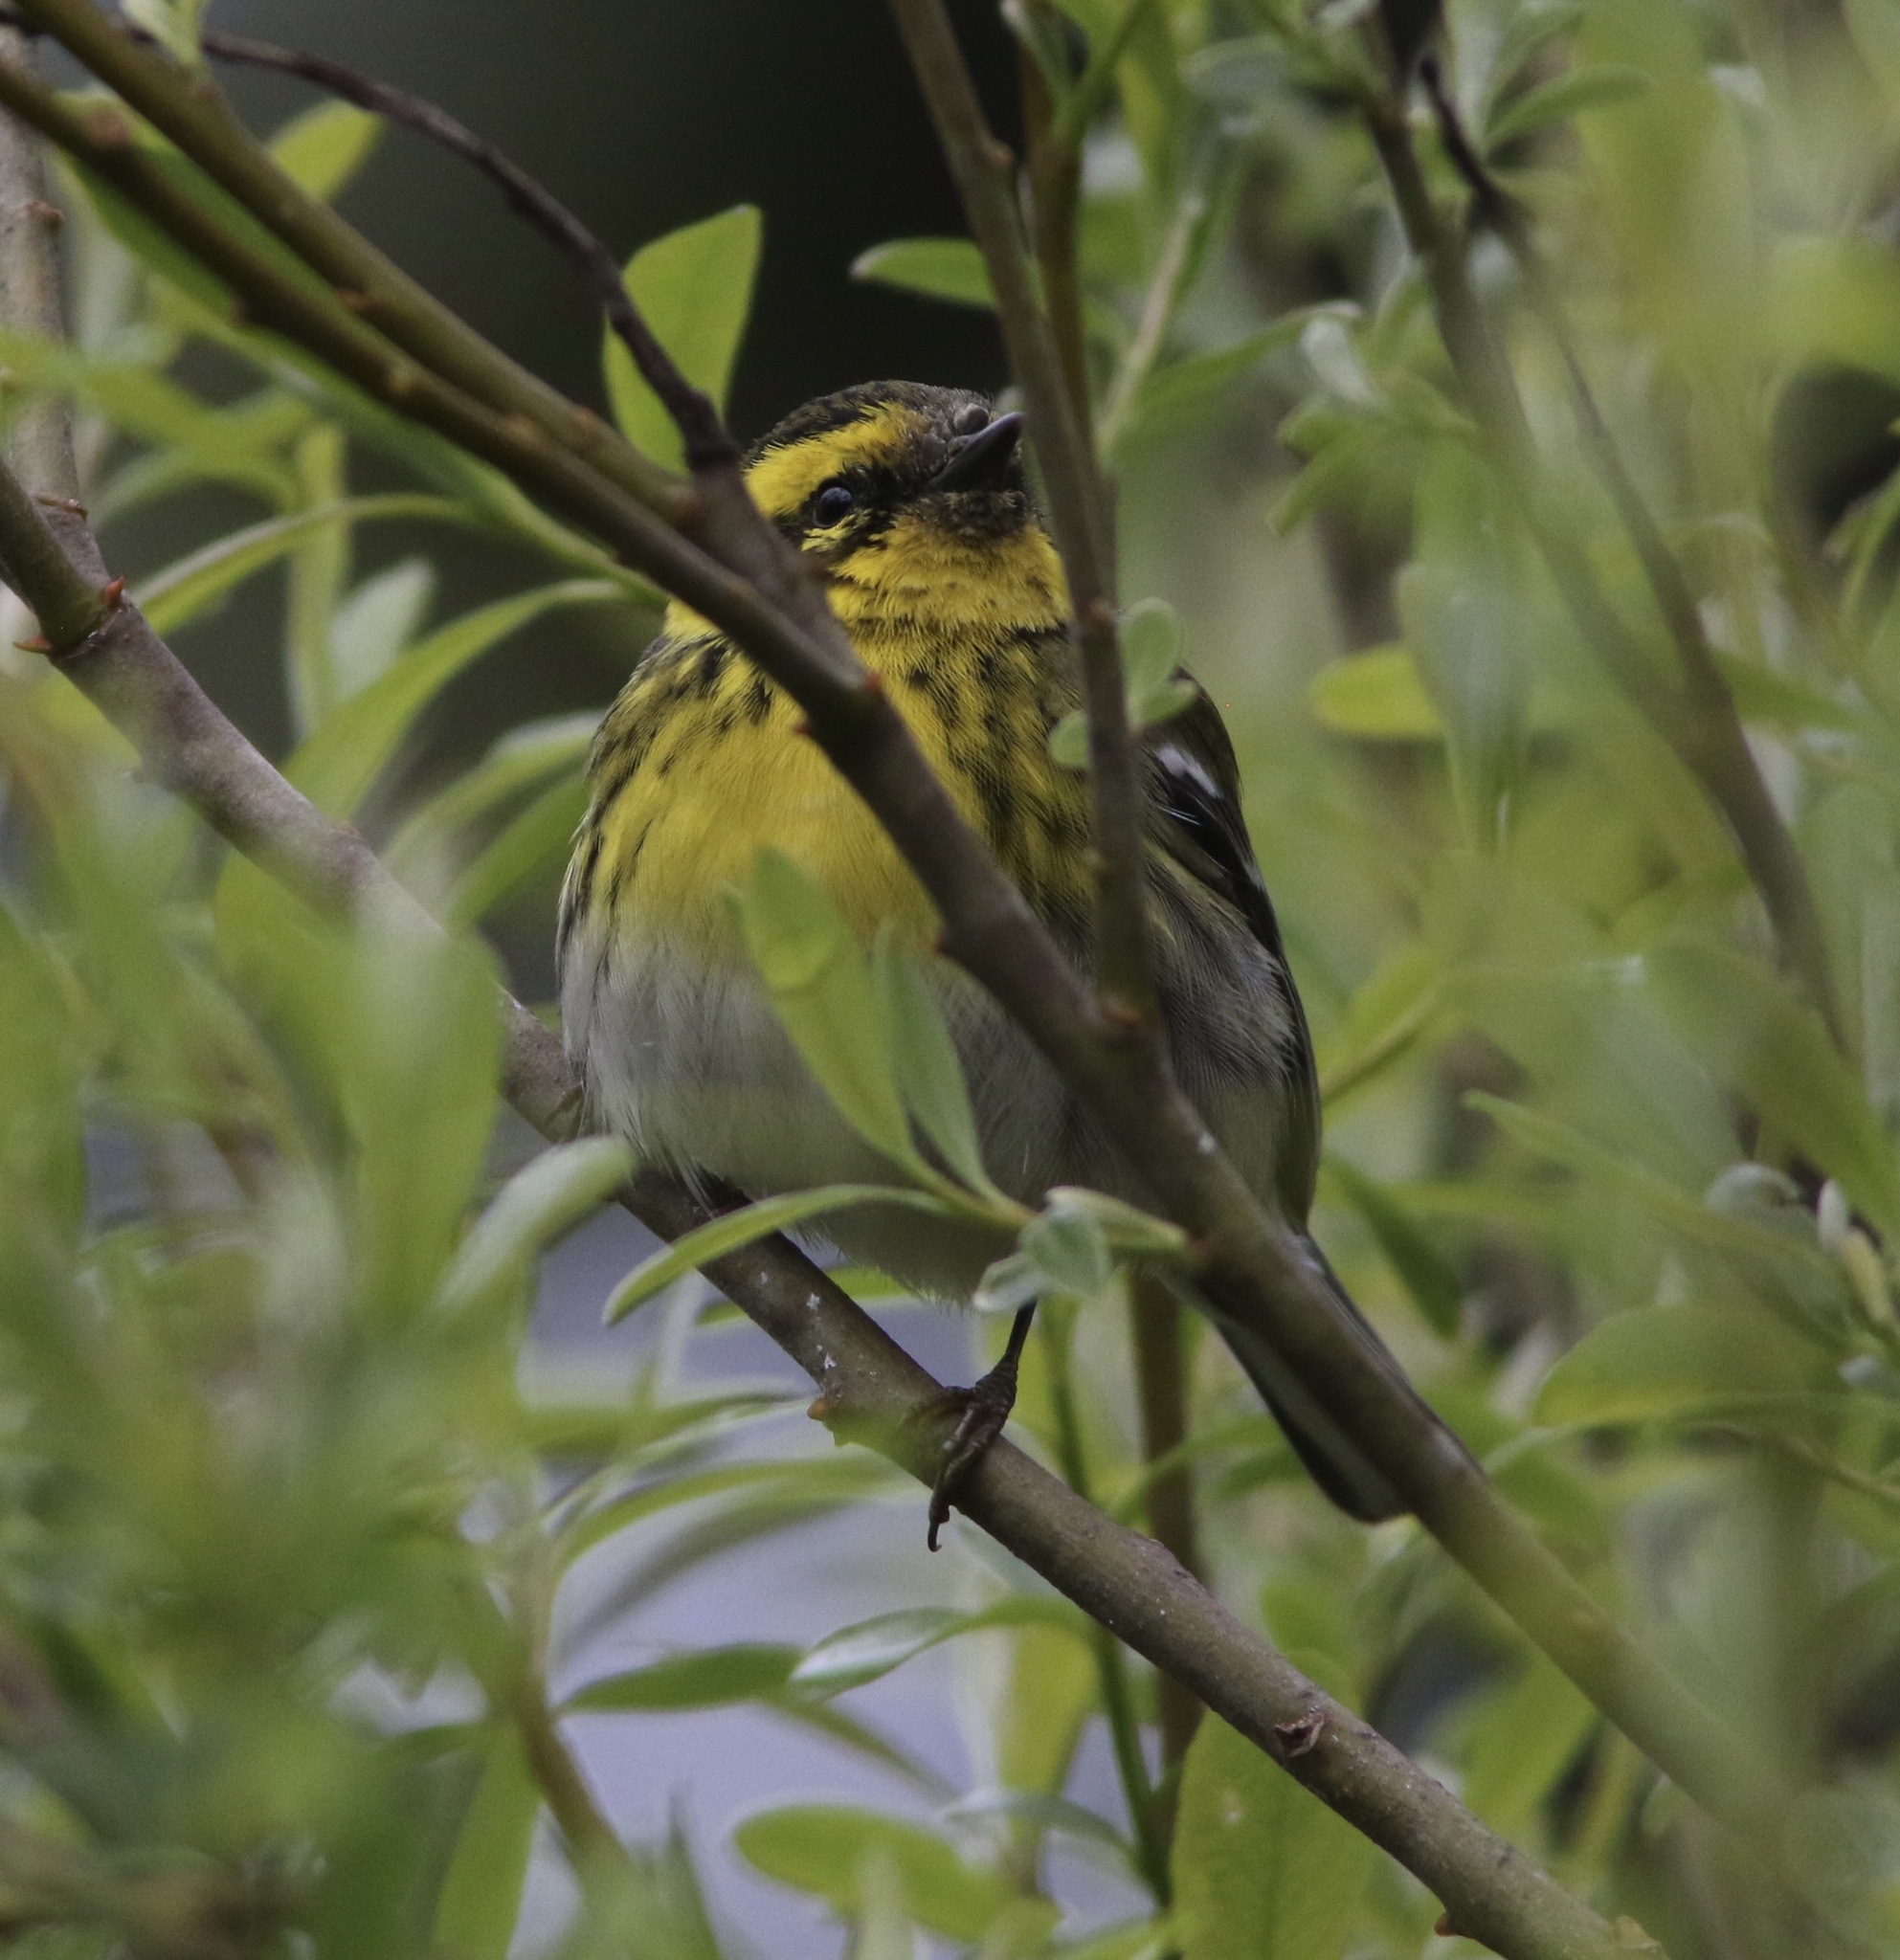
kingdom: Animalia
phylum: Chordata
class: Aves
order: Passeriformes
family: Parulidae
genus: Setophaga
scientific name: Setophaga townsendi
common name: Townsend's warbler
